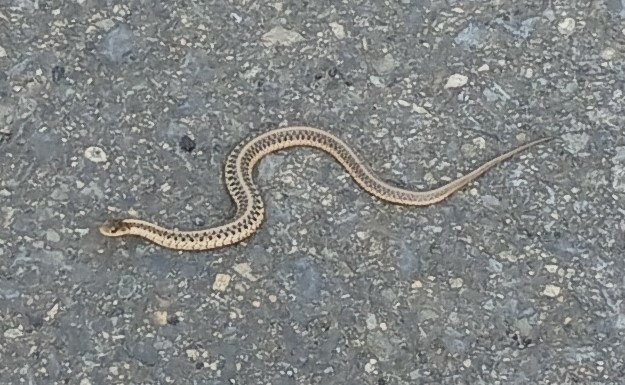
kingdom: Animalia
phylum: Chordata
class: Squamata
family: Colubridae
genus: Thamnophis
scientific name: Thamnophis sirtalis
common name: Common garter snake
